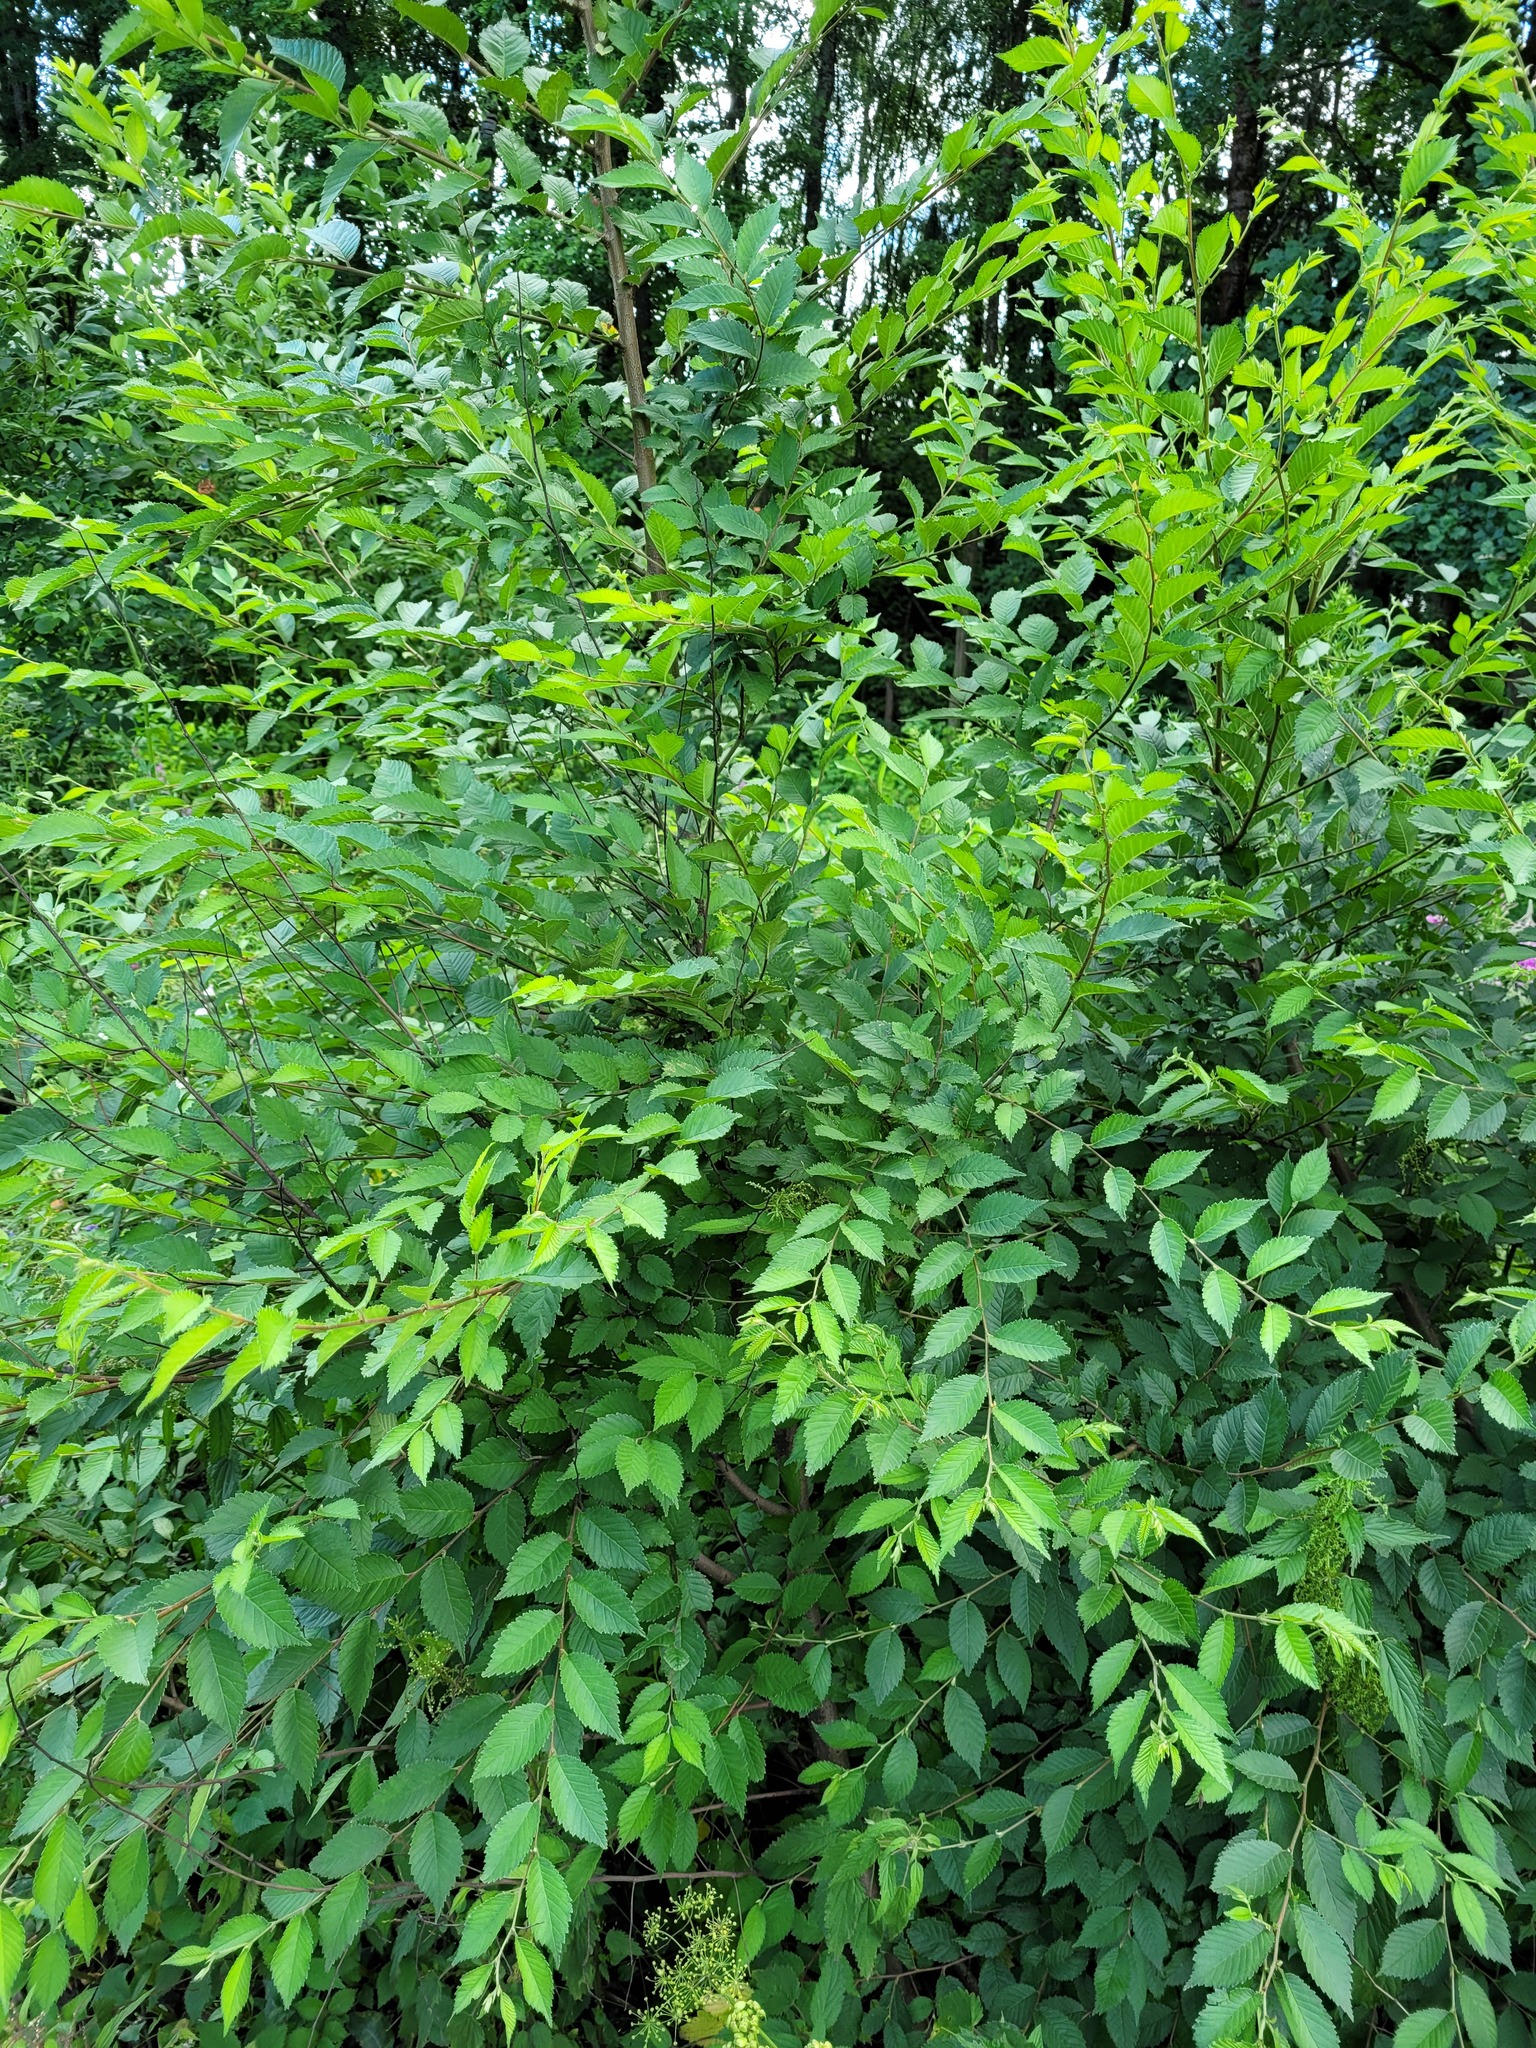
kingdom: Plantae
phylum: Tracheophyta
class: Magnoliopsida
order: Rosales
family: Ulmaceae
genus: Ulmus
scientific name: Ulmus pumila
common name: Siberian elm
